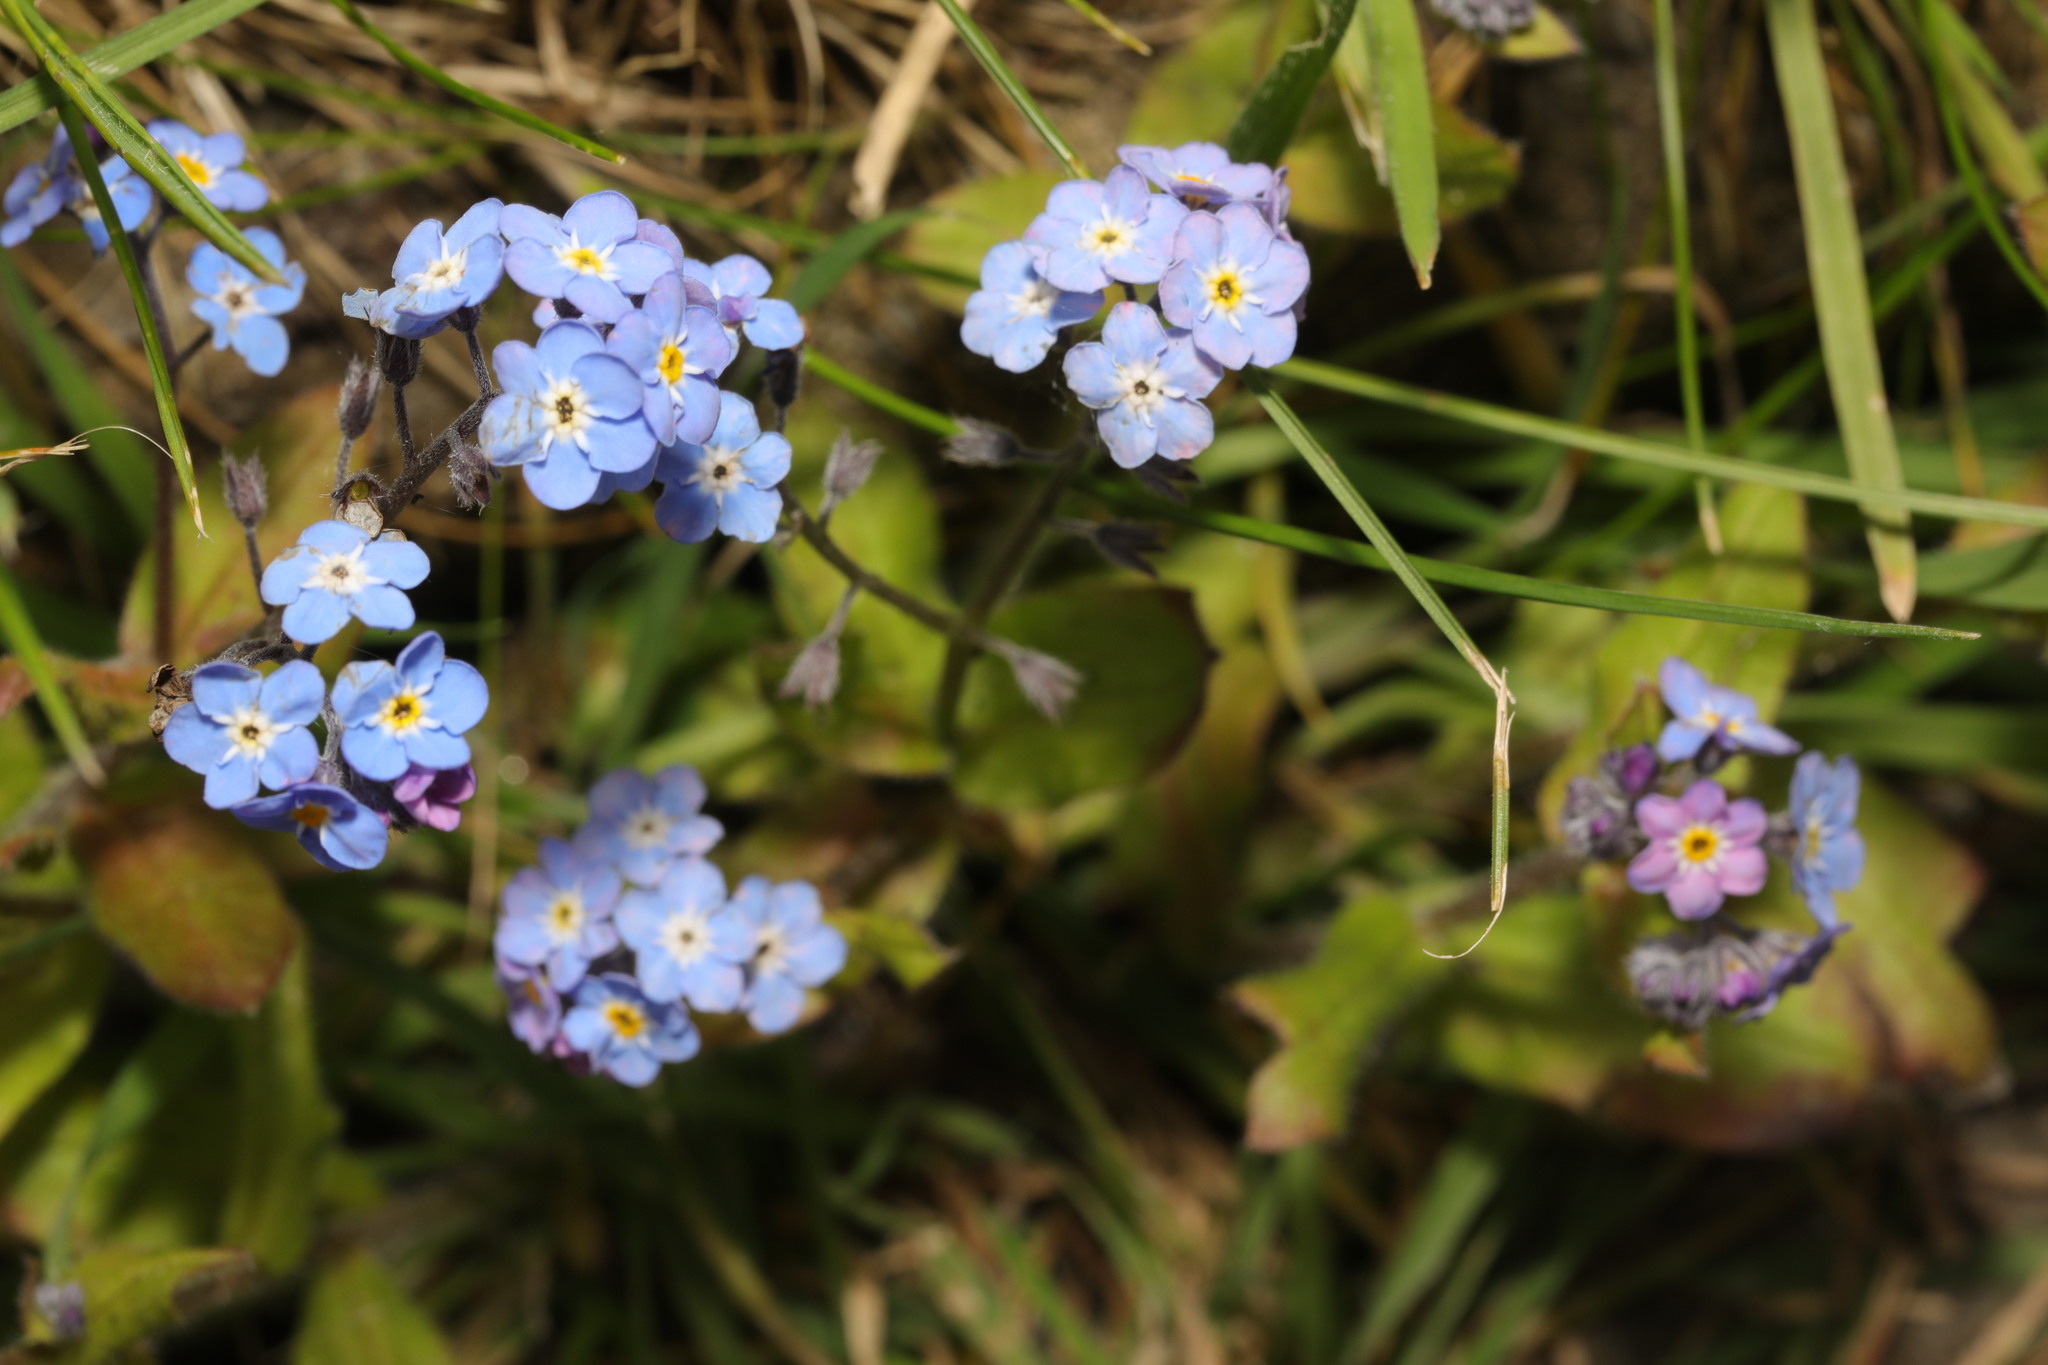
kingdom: Plantae
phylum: Tracheophyta
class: Magnoliopsida
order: Boraginales
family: Boraginaceae
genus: Myosotis
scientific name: Myosotis sylvatica
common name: Wood forget-me-not
